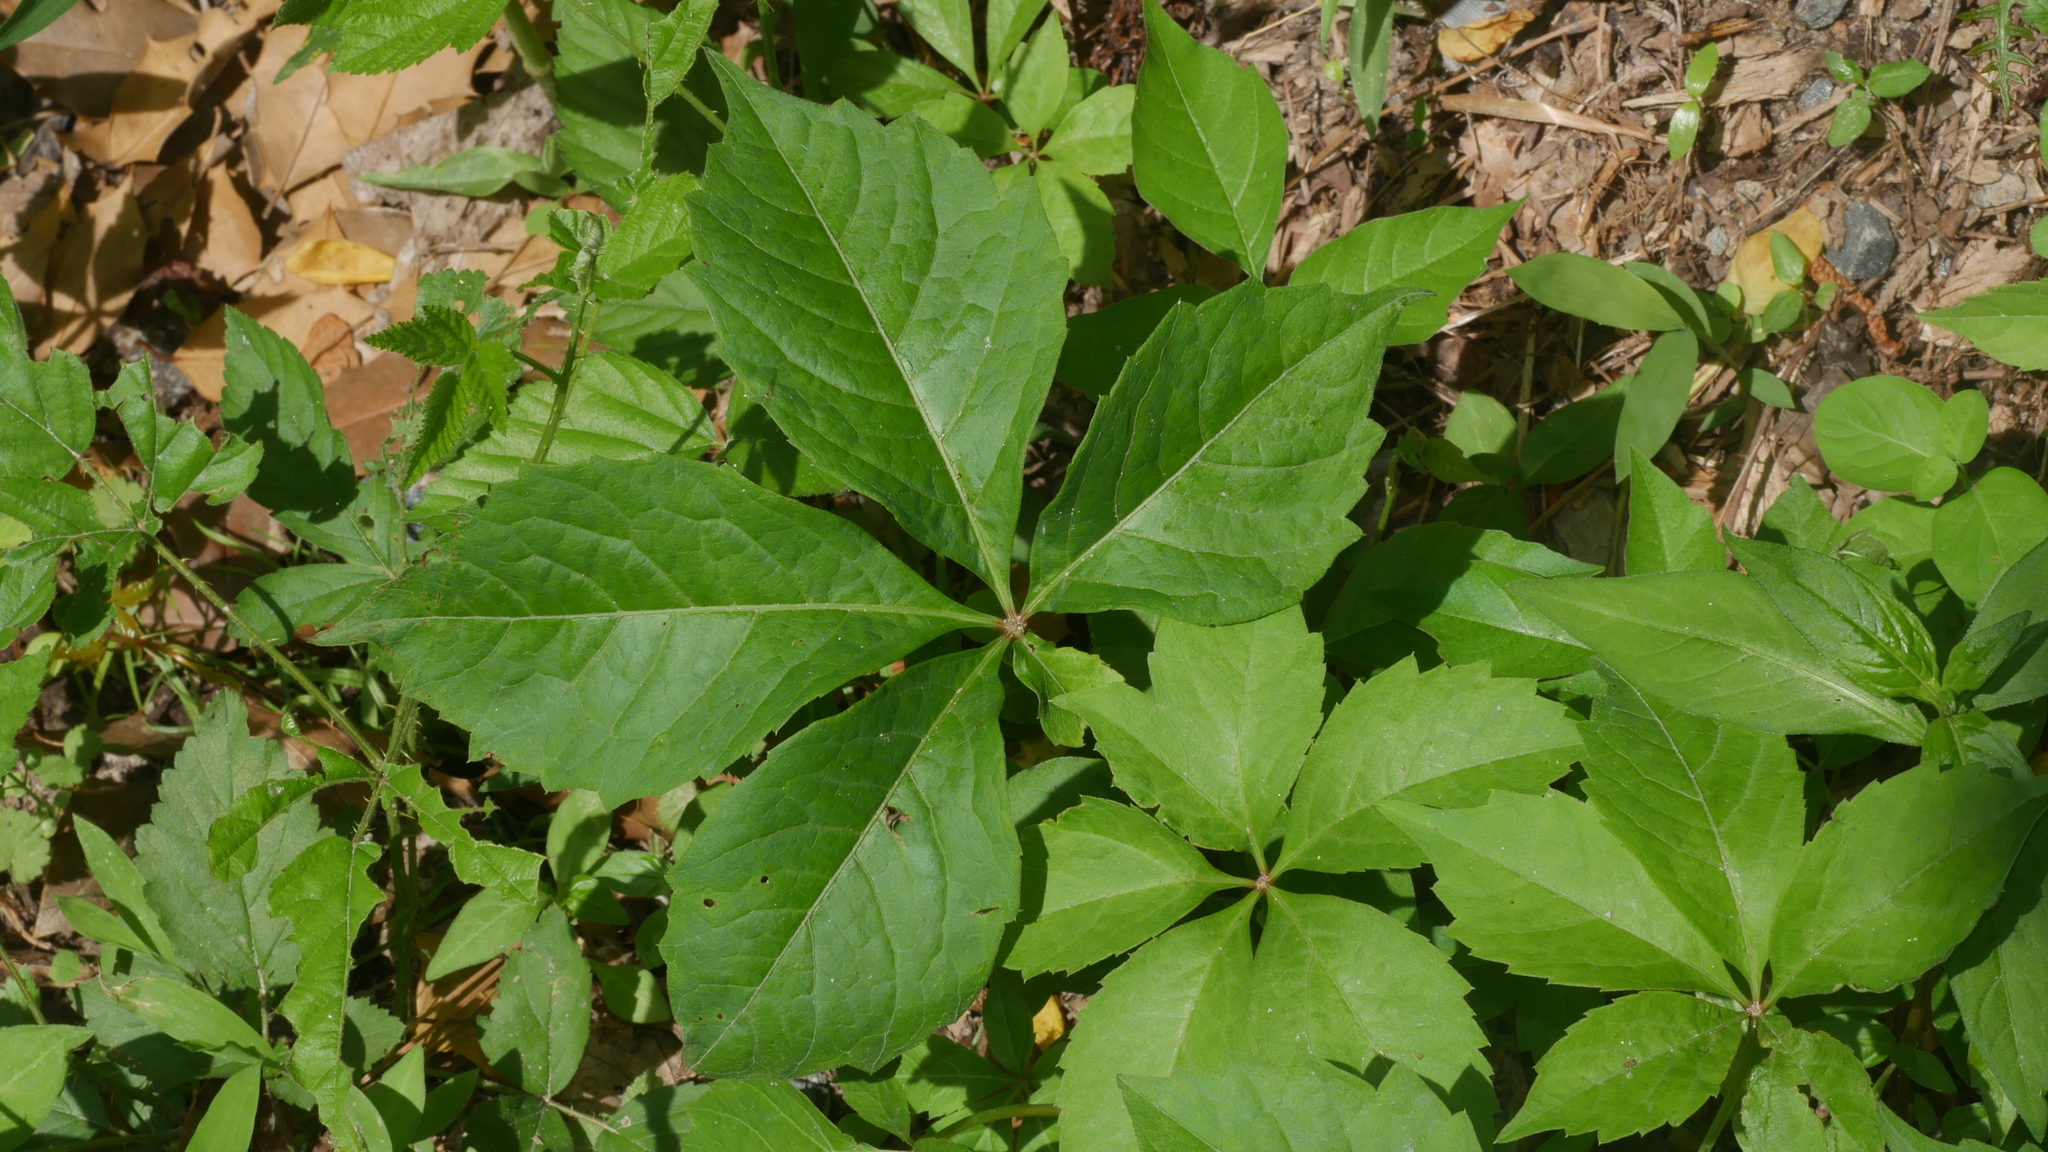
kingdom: Plantae
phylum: Tracheophyta
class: Magnoliopsida
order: Vitales
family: Vitaceae
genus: Parthenocissus
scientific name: Parthenocissus quinquefolia
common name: Virginia-creeper
